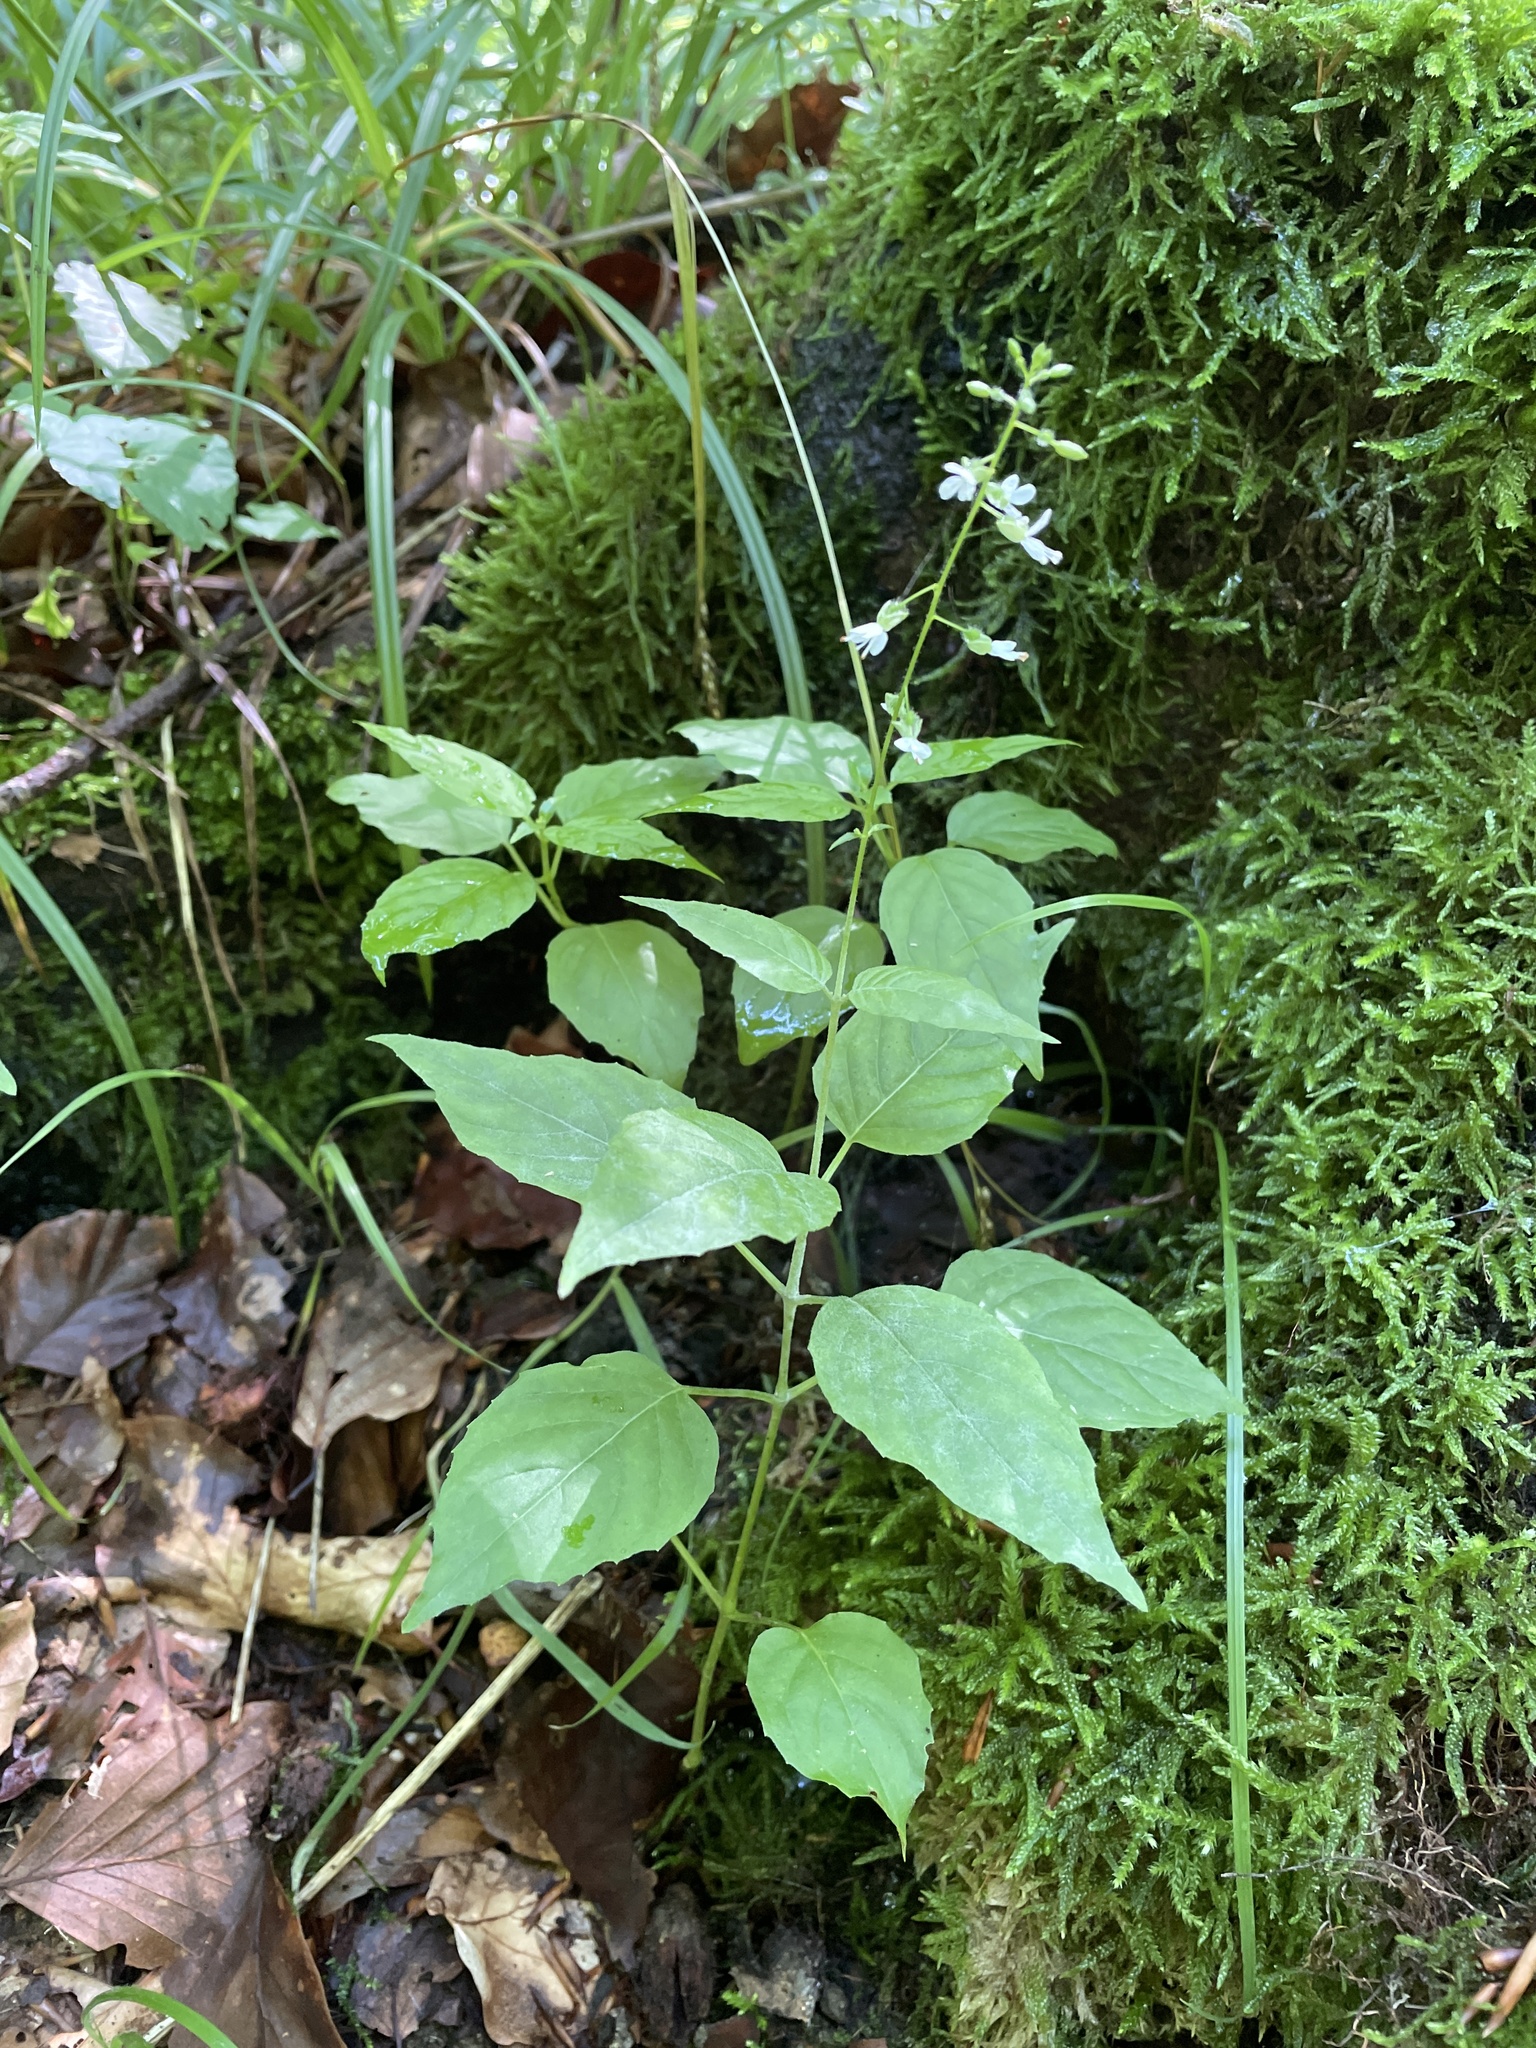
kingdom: Plantae
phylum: Tracheophyta
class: Magnoliopsida
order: Myrtales
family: Onagraceae
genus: Circaea
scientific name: Circaea lutetiana
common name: Enchanter's-nightshade
